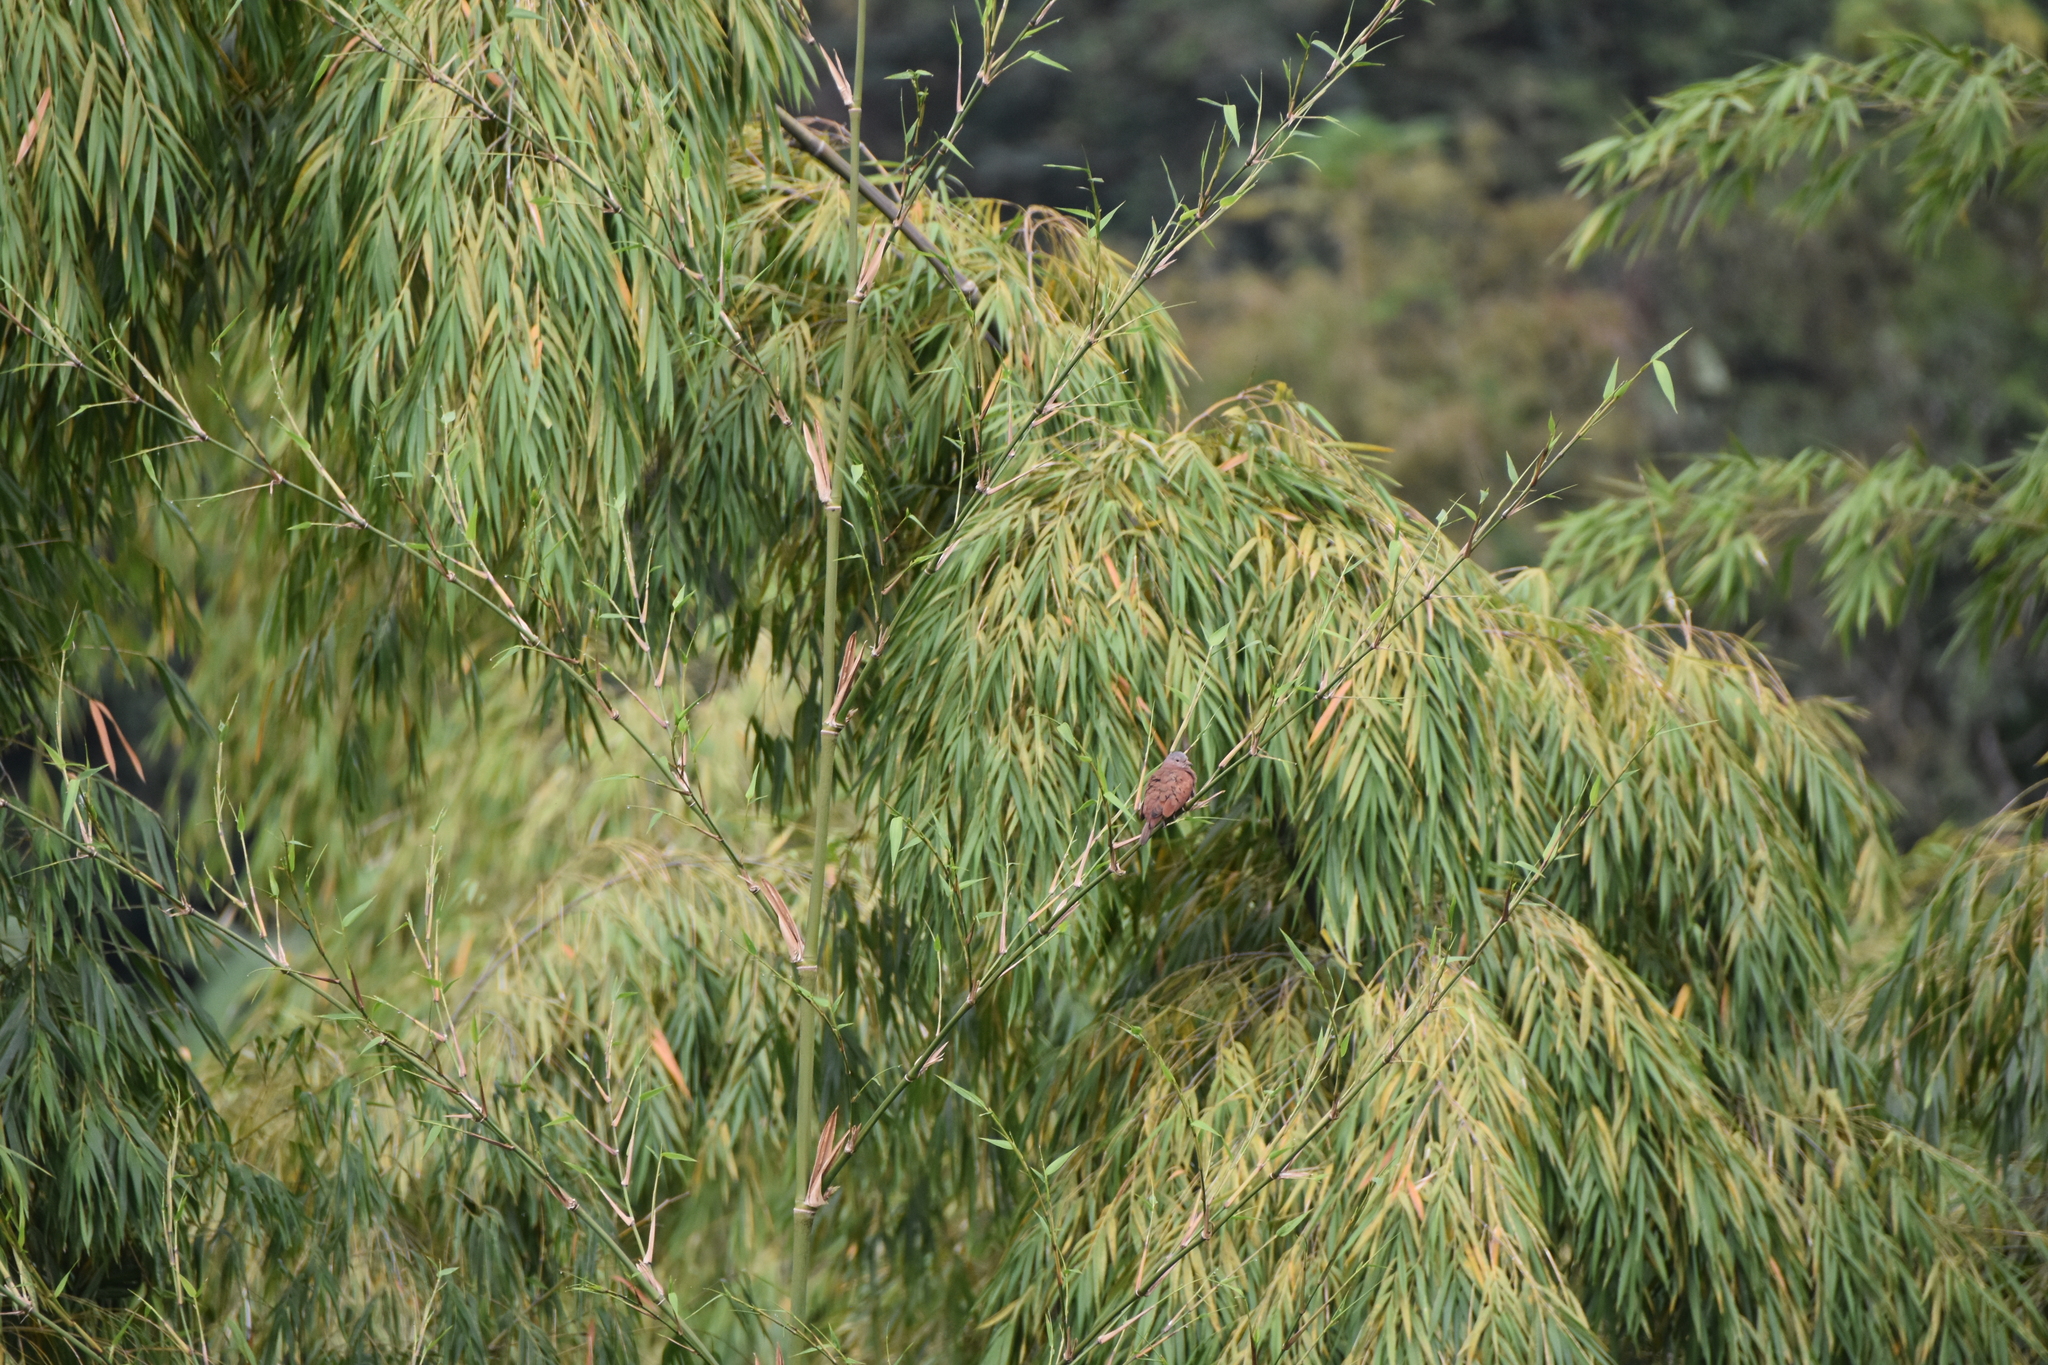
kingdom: Animalia
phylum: Chordata
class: Aves
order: Columbiformes
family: Columbidae
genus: Columbina
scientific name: Columbina talpacoti
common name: Ruddy ground dove
